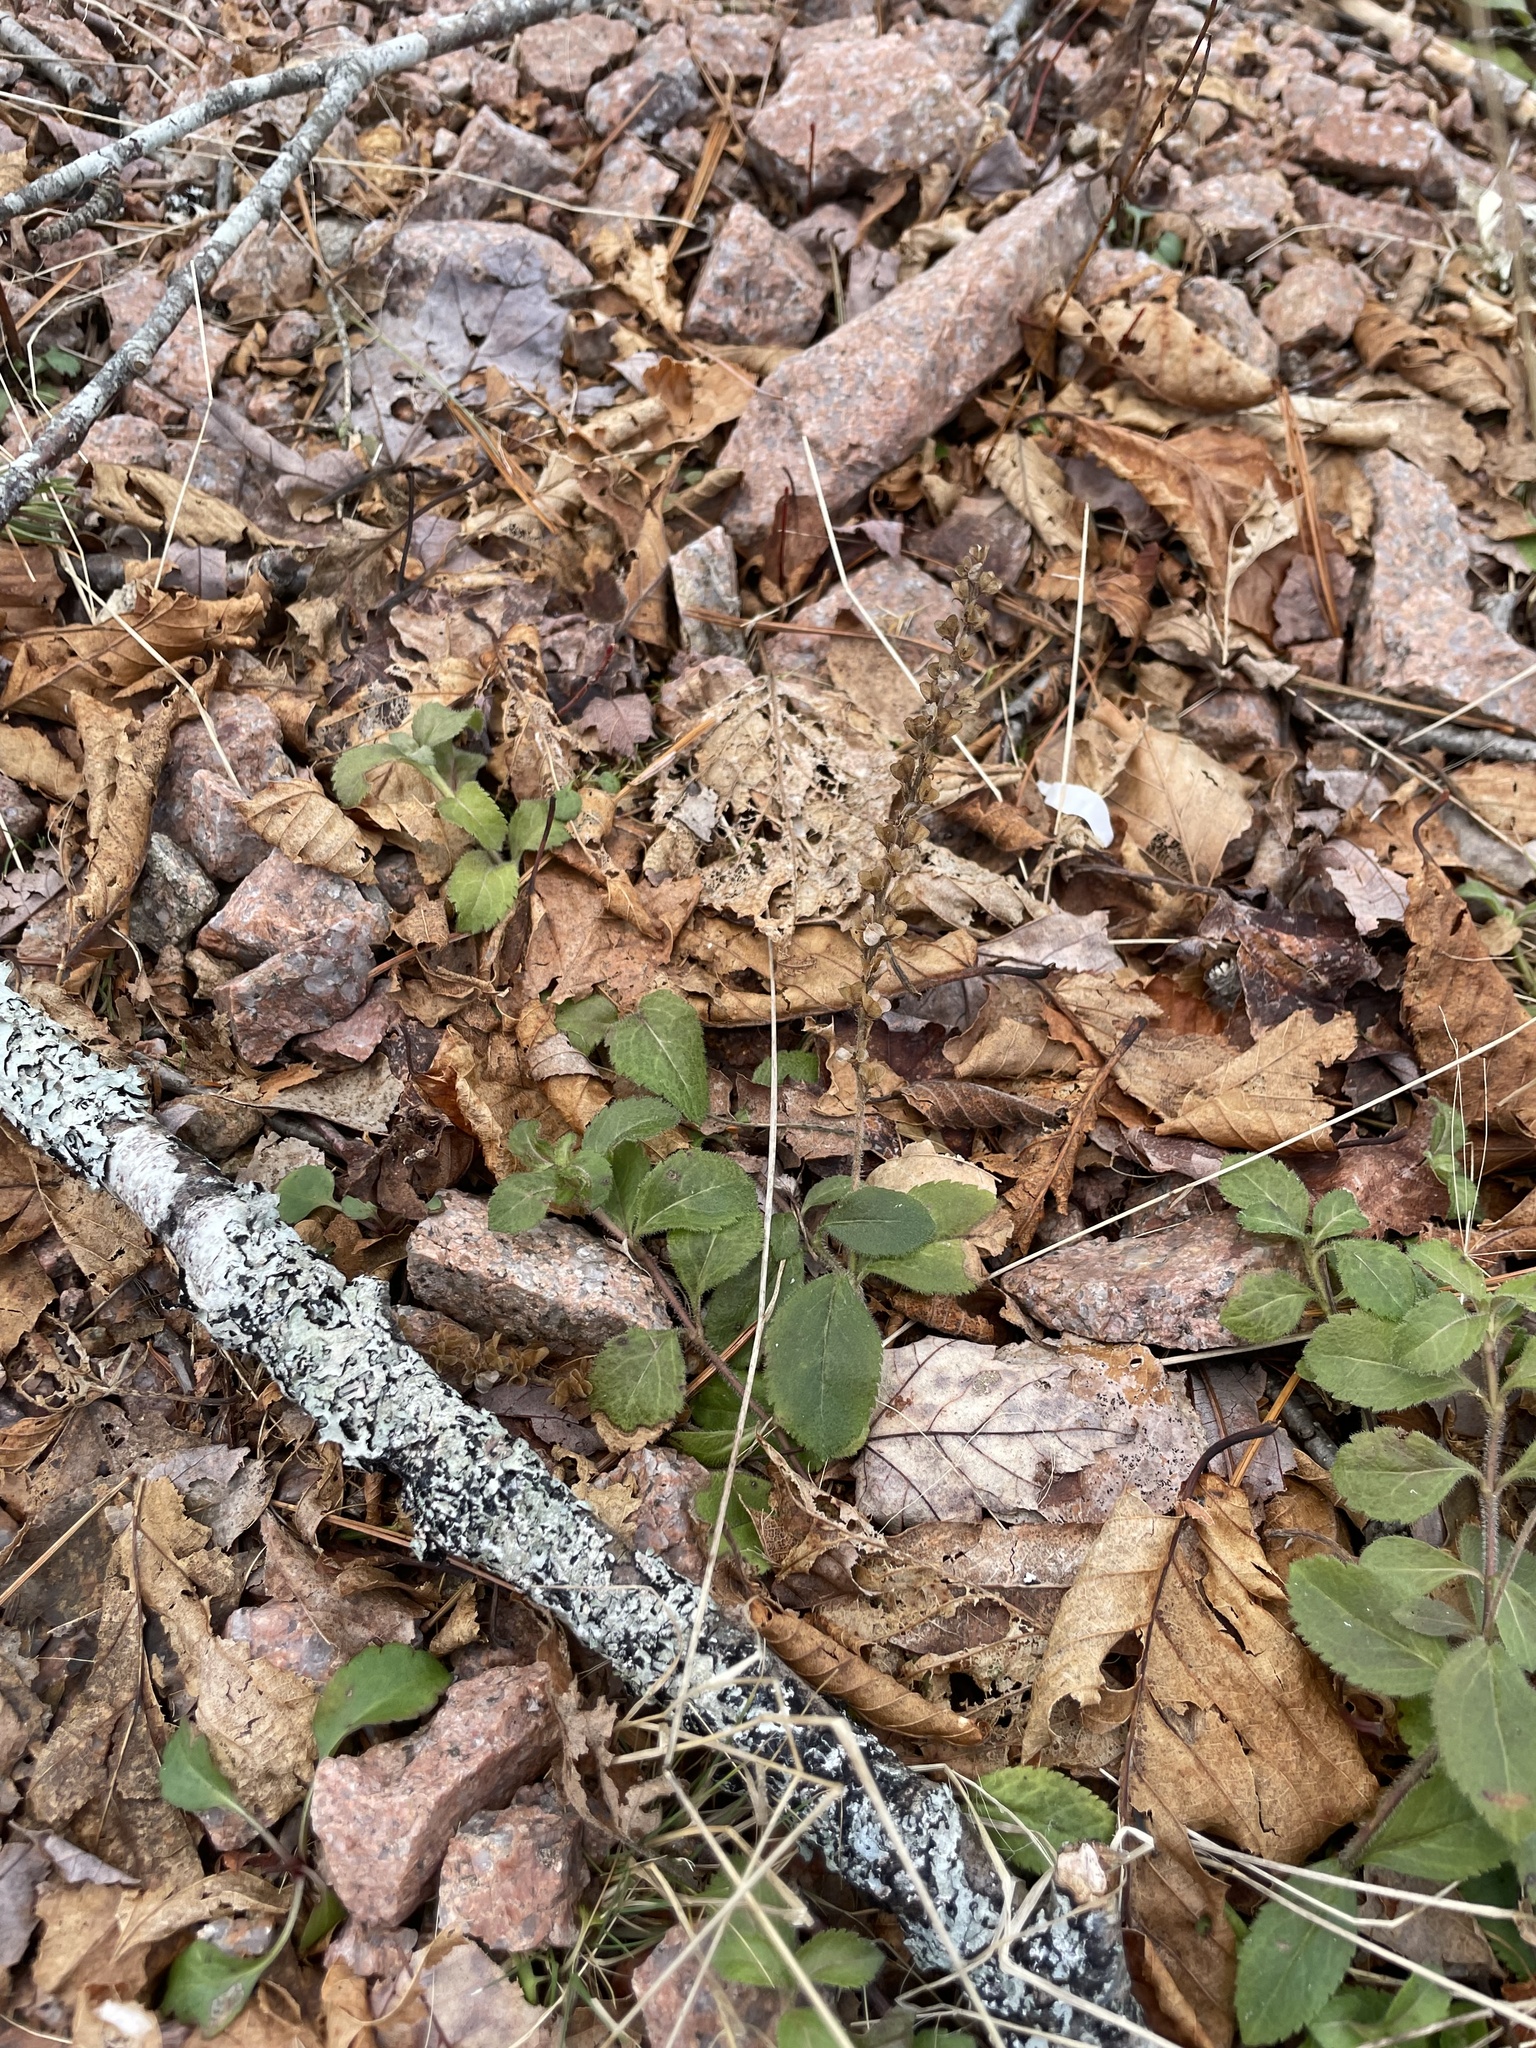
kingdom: Plantae
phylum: Tracheophyta
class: Magnoliopsida
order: Lamiales
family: Plantaginaceae
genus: Veronica
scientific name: Veronica officinalis
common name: Common speedwell
